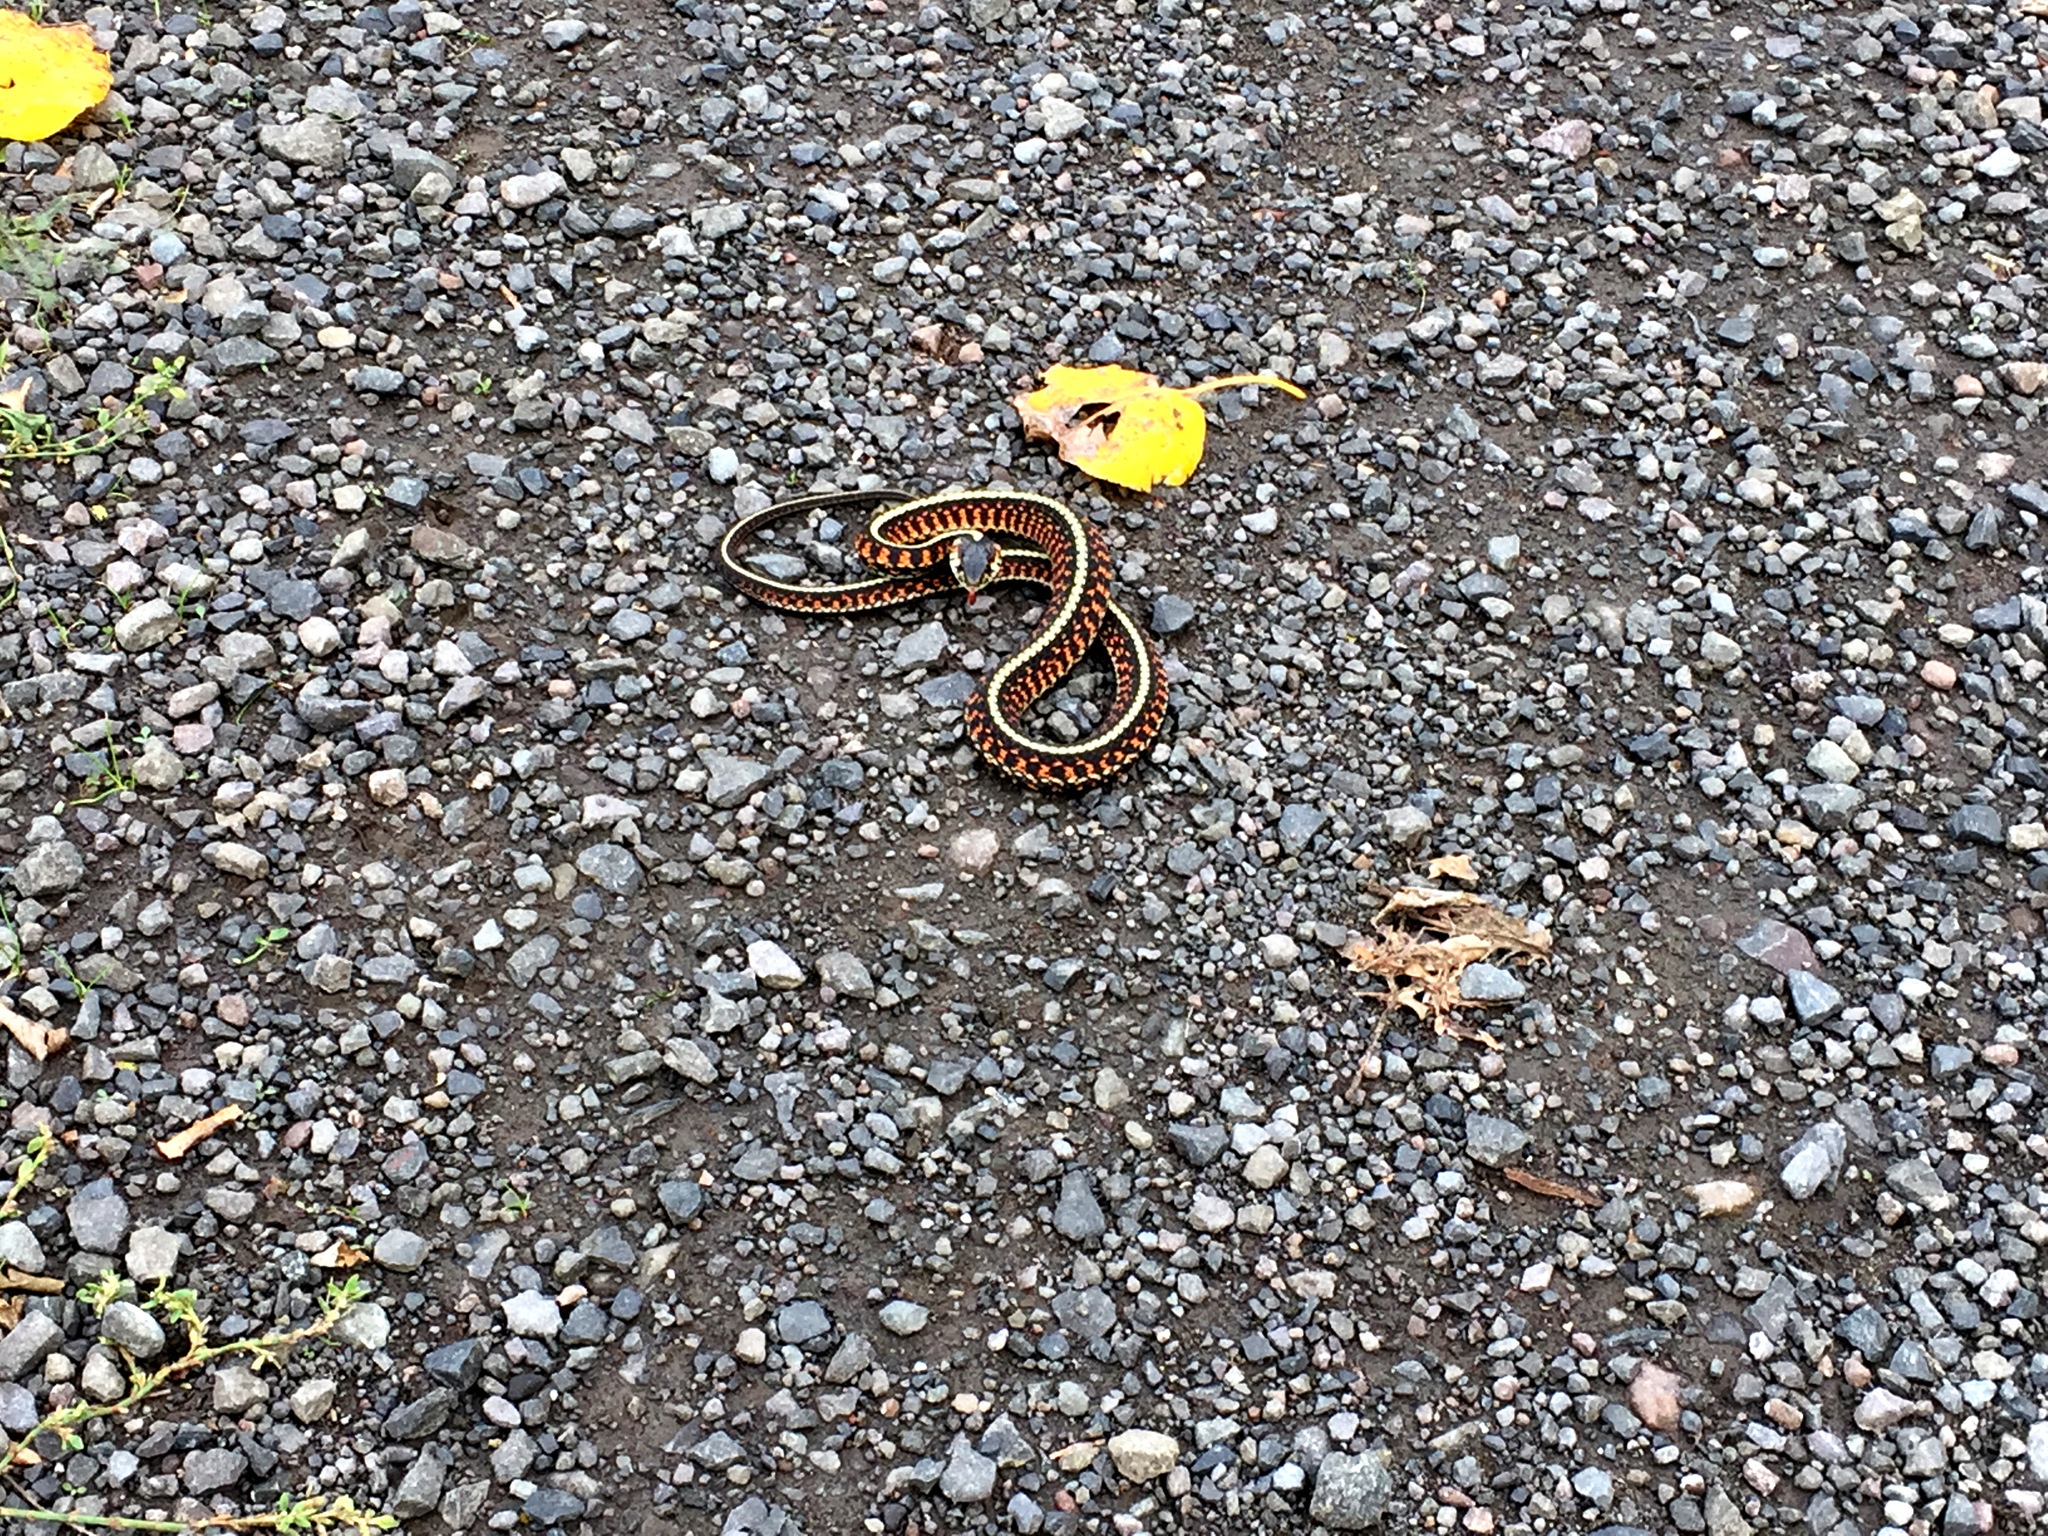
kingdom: Animalia
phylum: Chordata
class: Squamata
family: Colubridae
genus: Thamnophis
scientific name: Thamnophis sirtalis
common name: Common garter snake
